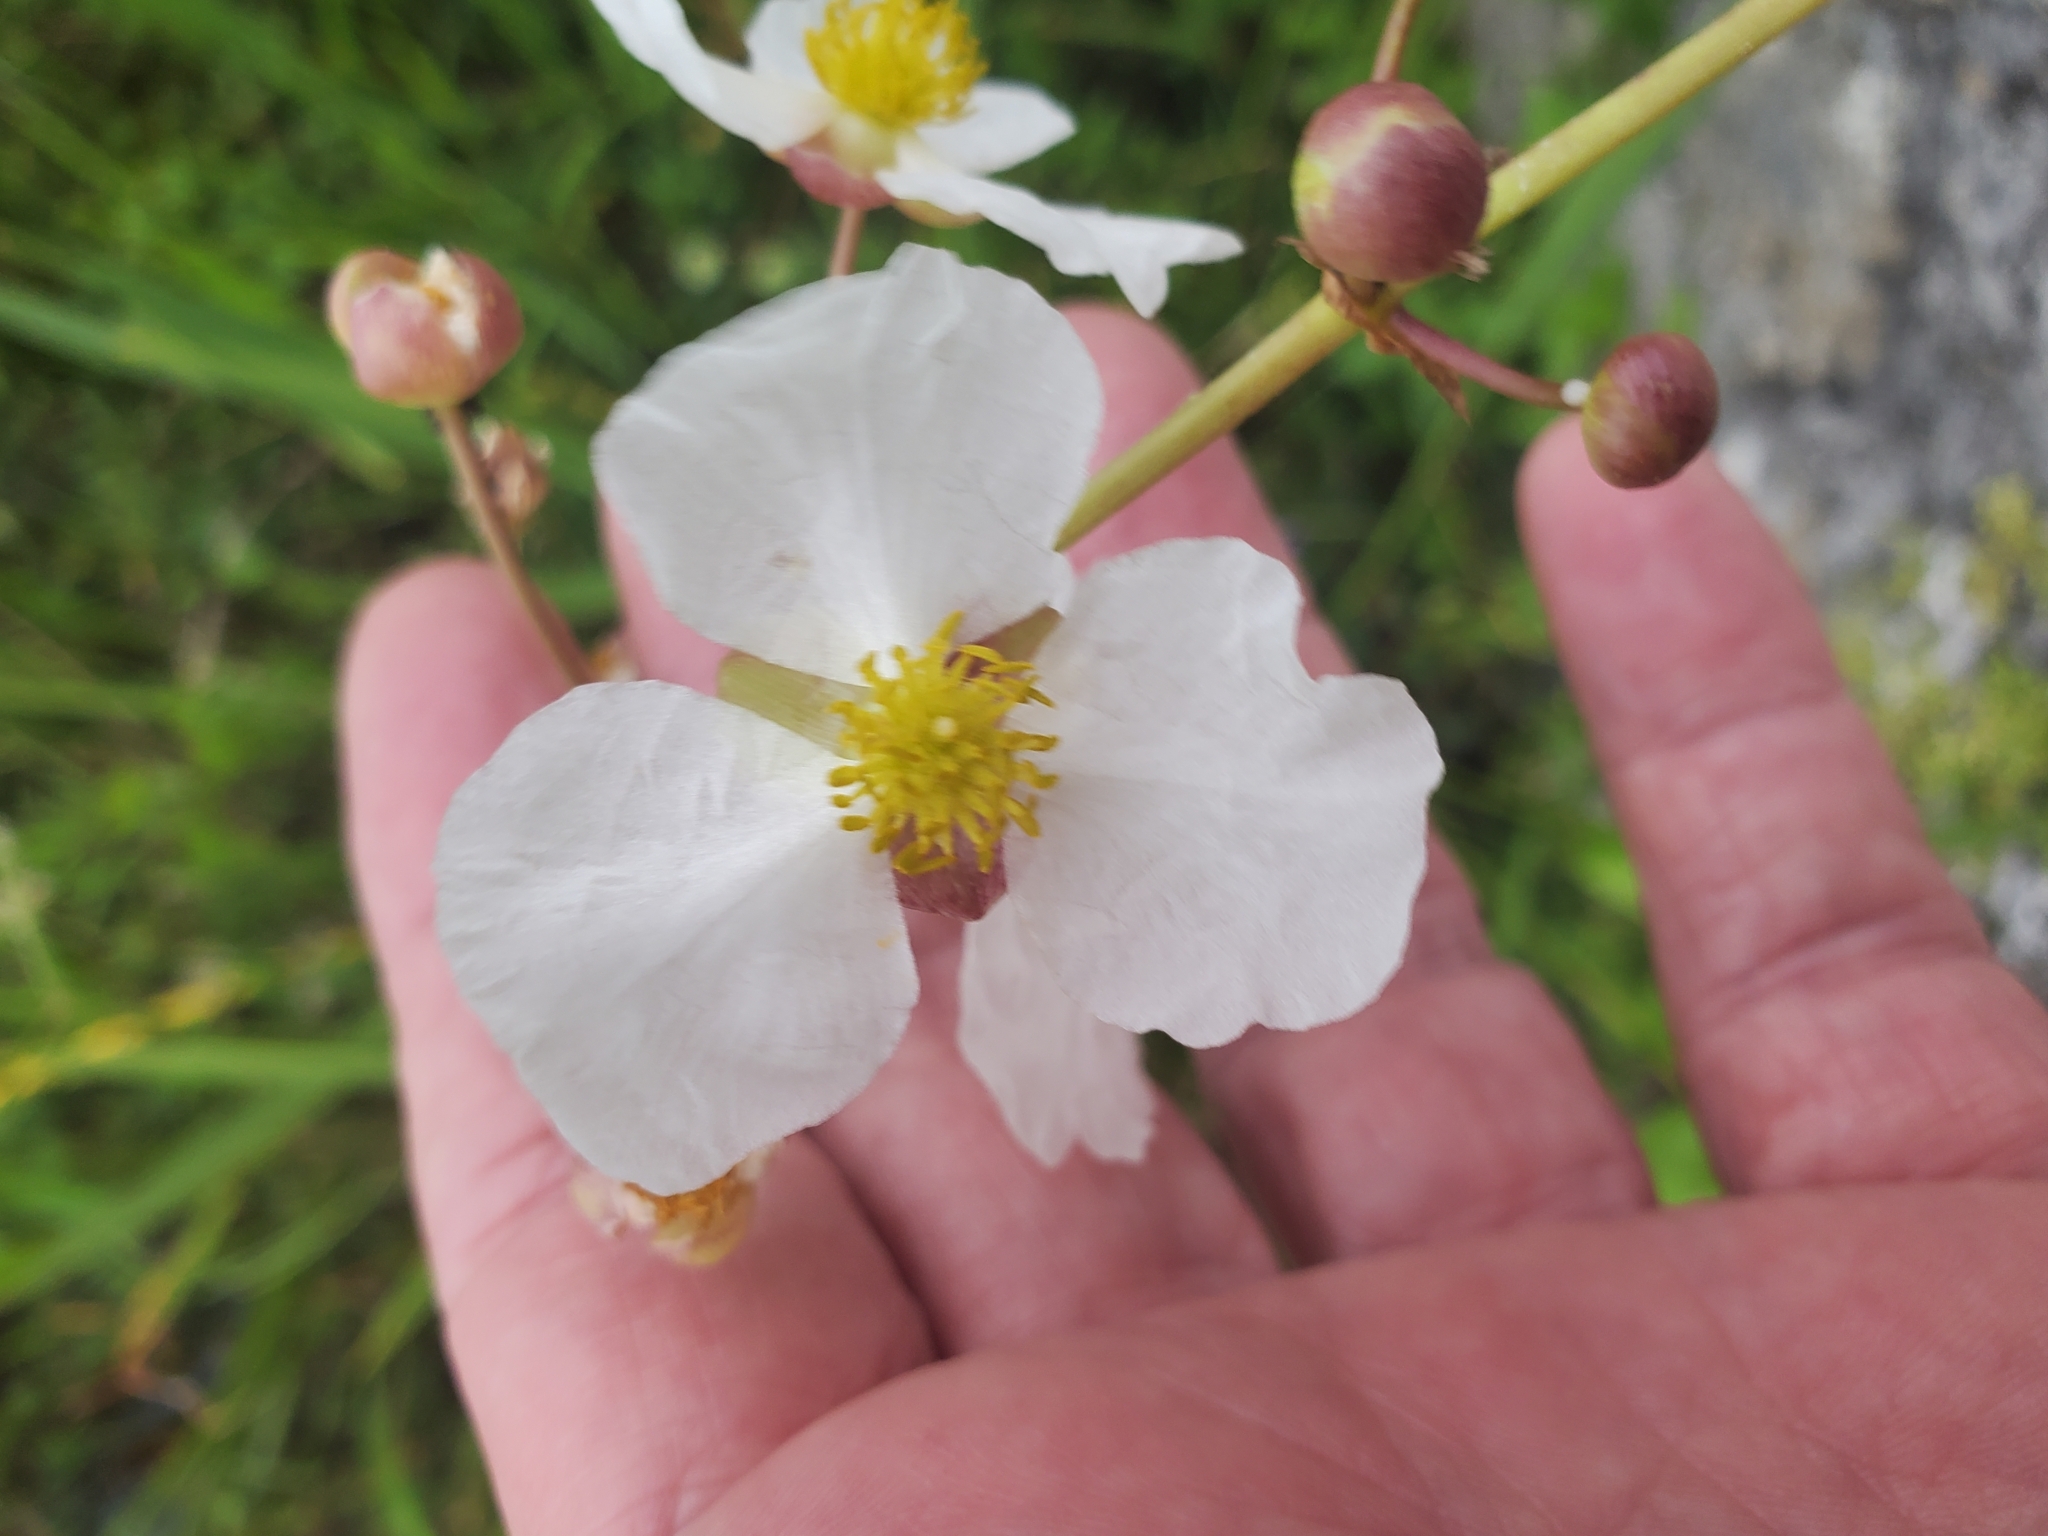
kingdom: Plantae
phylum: Tracheophyta
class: Liliopsida
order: Alismatales
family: Alismataceae
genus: Sagittaria
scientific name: Sagittaria lancifolia
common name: Lance-leaf arrowhead
